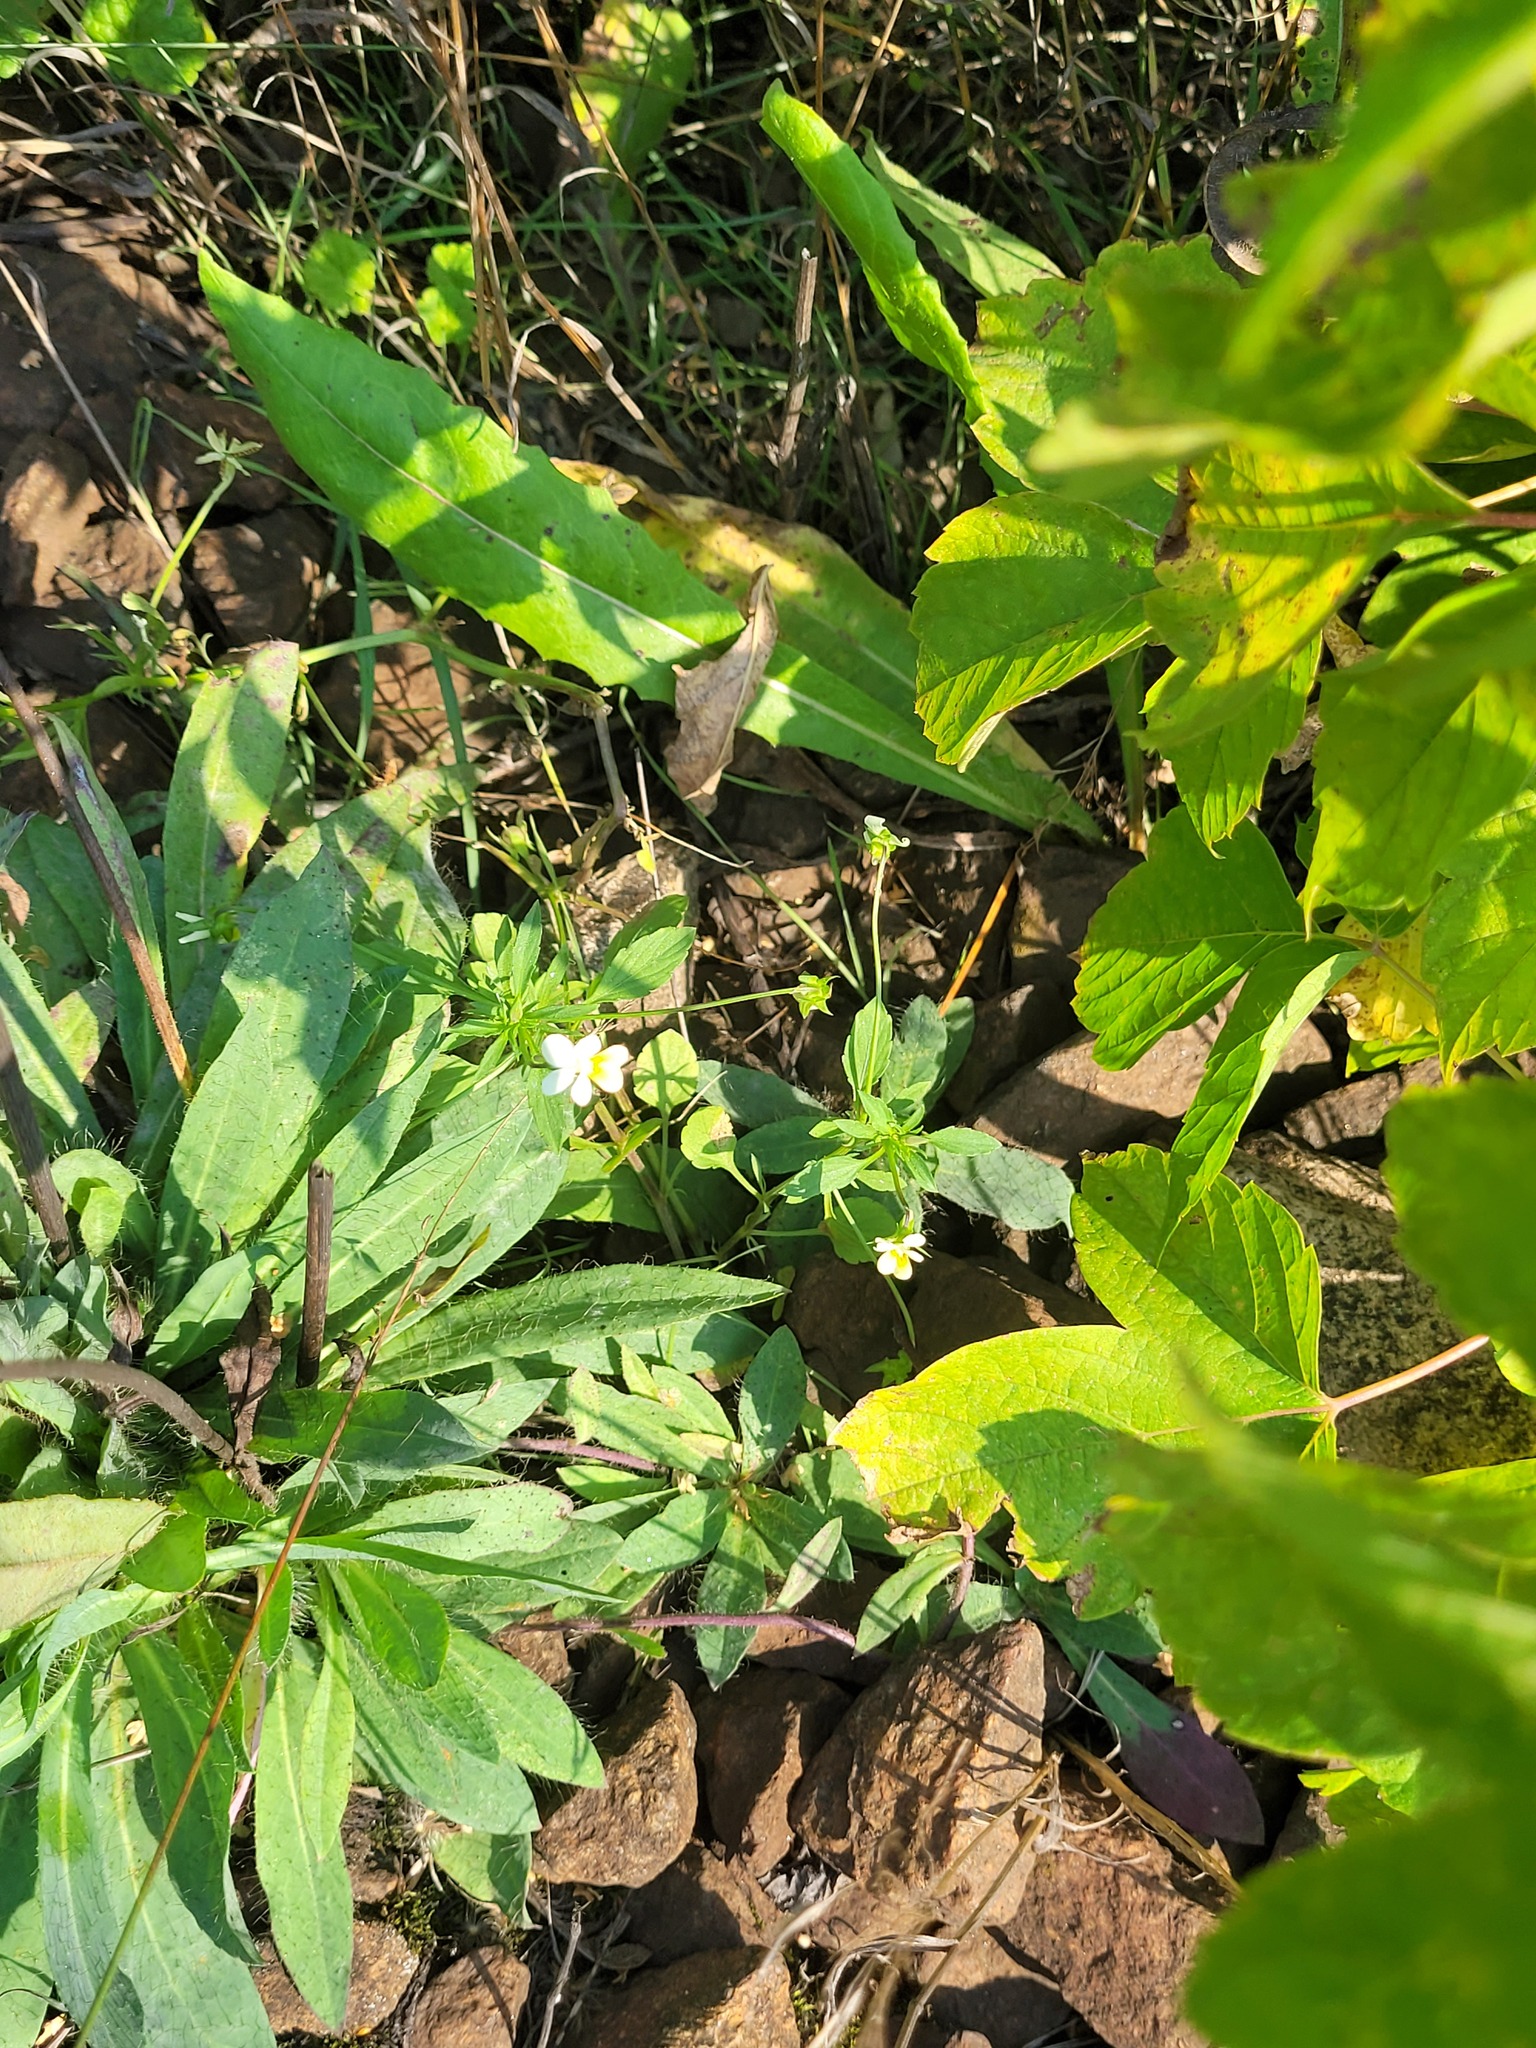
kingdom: Plantae
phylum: Tracheophyta
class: Magnoliopsida
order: Malpighiales
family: Violaceae
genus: Viola
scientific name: Viola arvensis
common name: Field pansy
